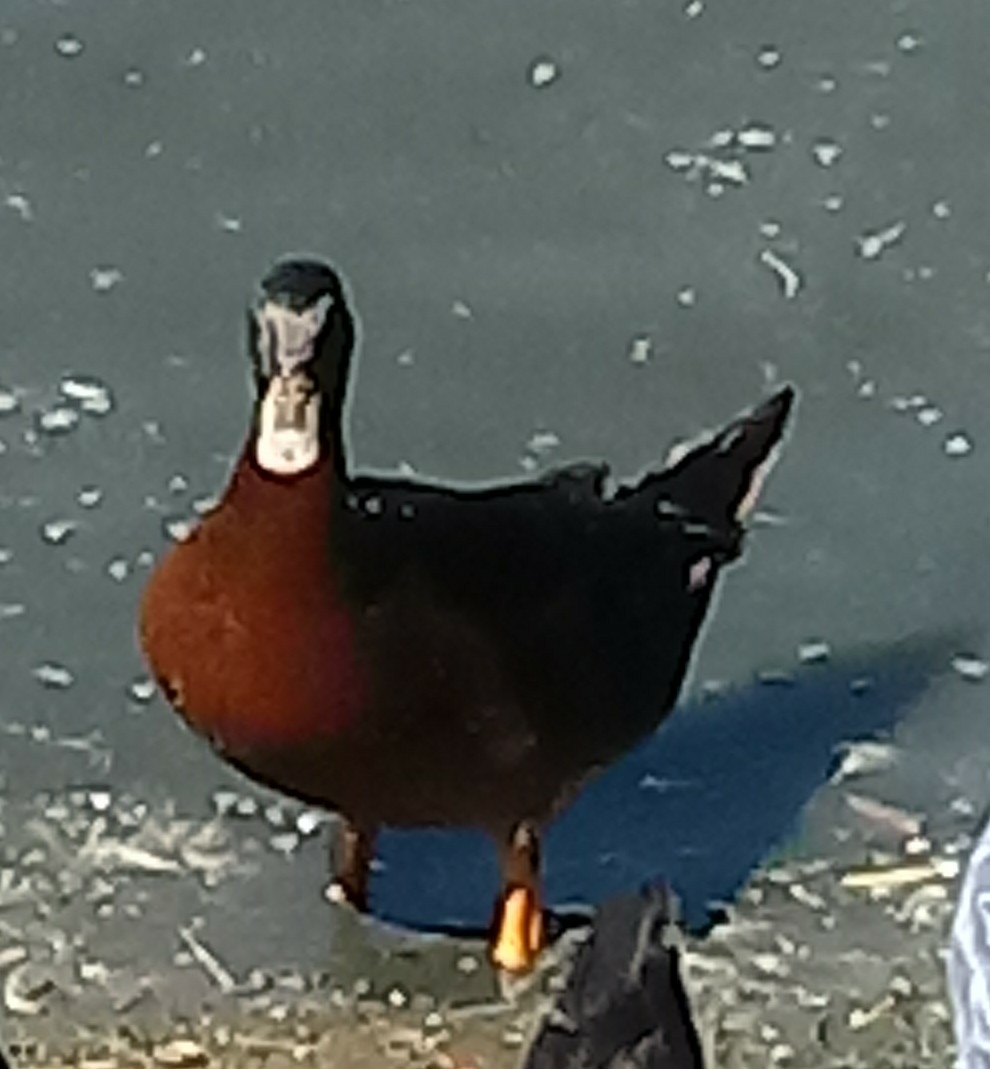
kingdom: Animalia
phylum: Chordata
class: Aves
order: Anseriformes
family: Anatidae
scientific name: Anatidae
